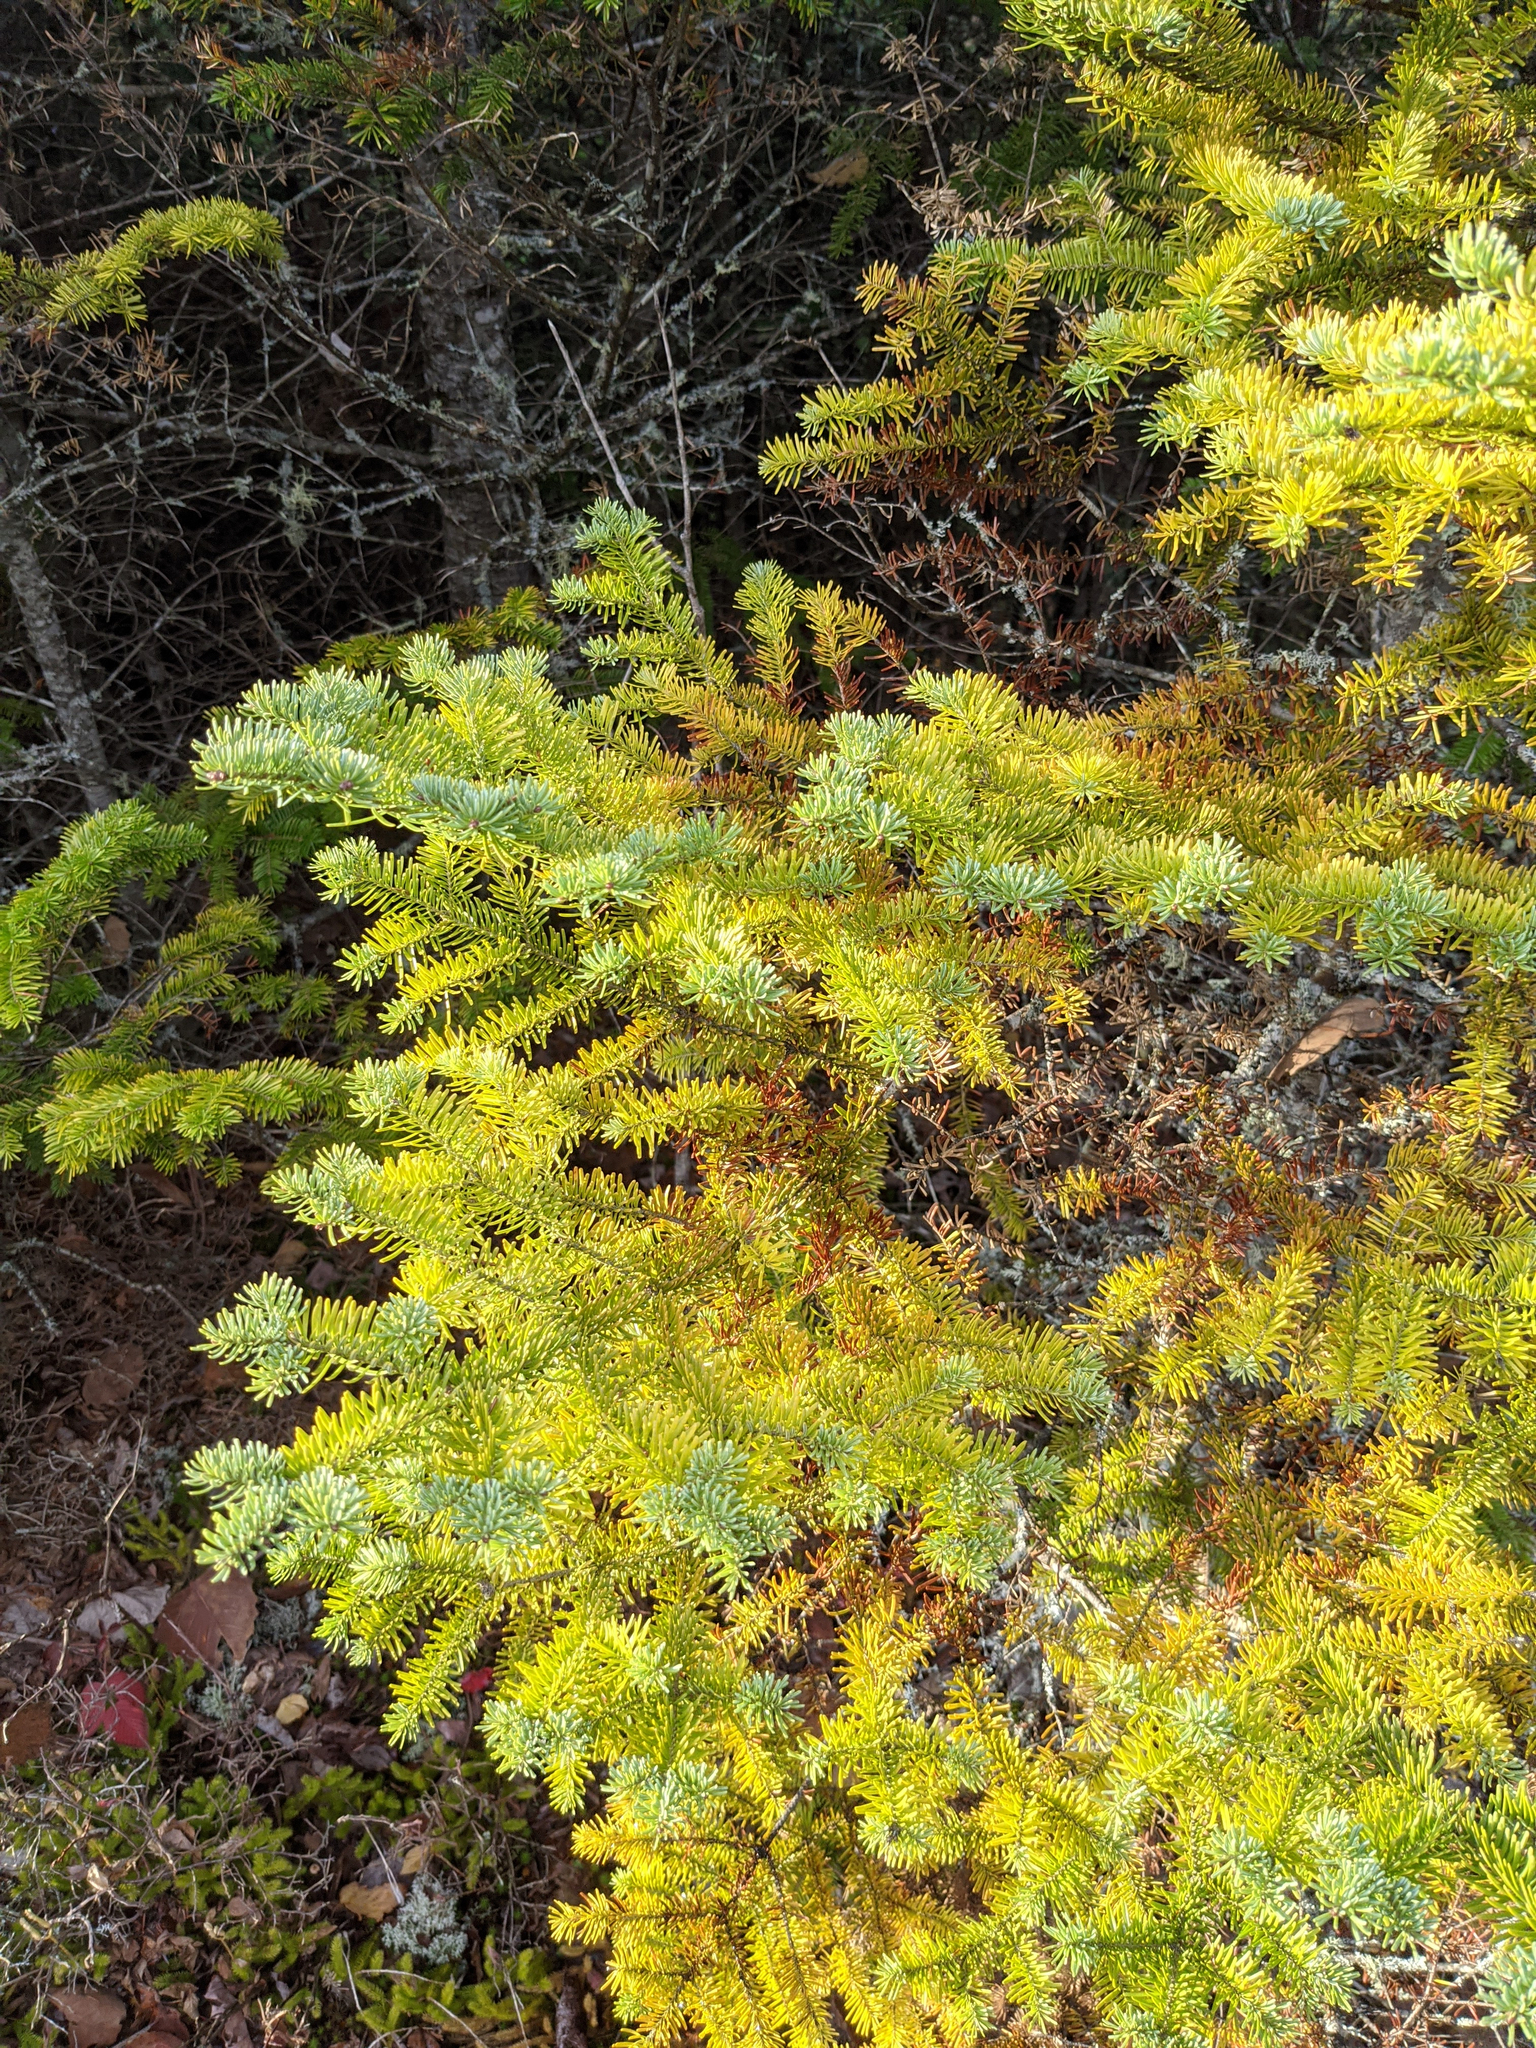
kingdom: Plantae
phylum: Tracheophyta
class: Pinopsida
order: Pinales
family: Pinaceae
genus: Abies
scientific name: Abies balsamea
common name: Balsam fir
